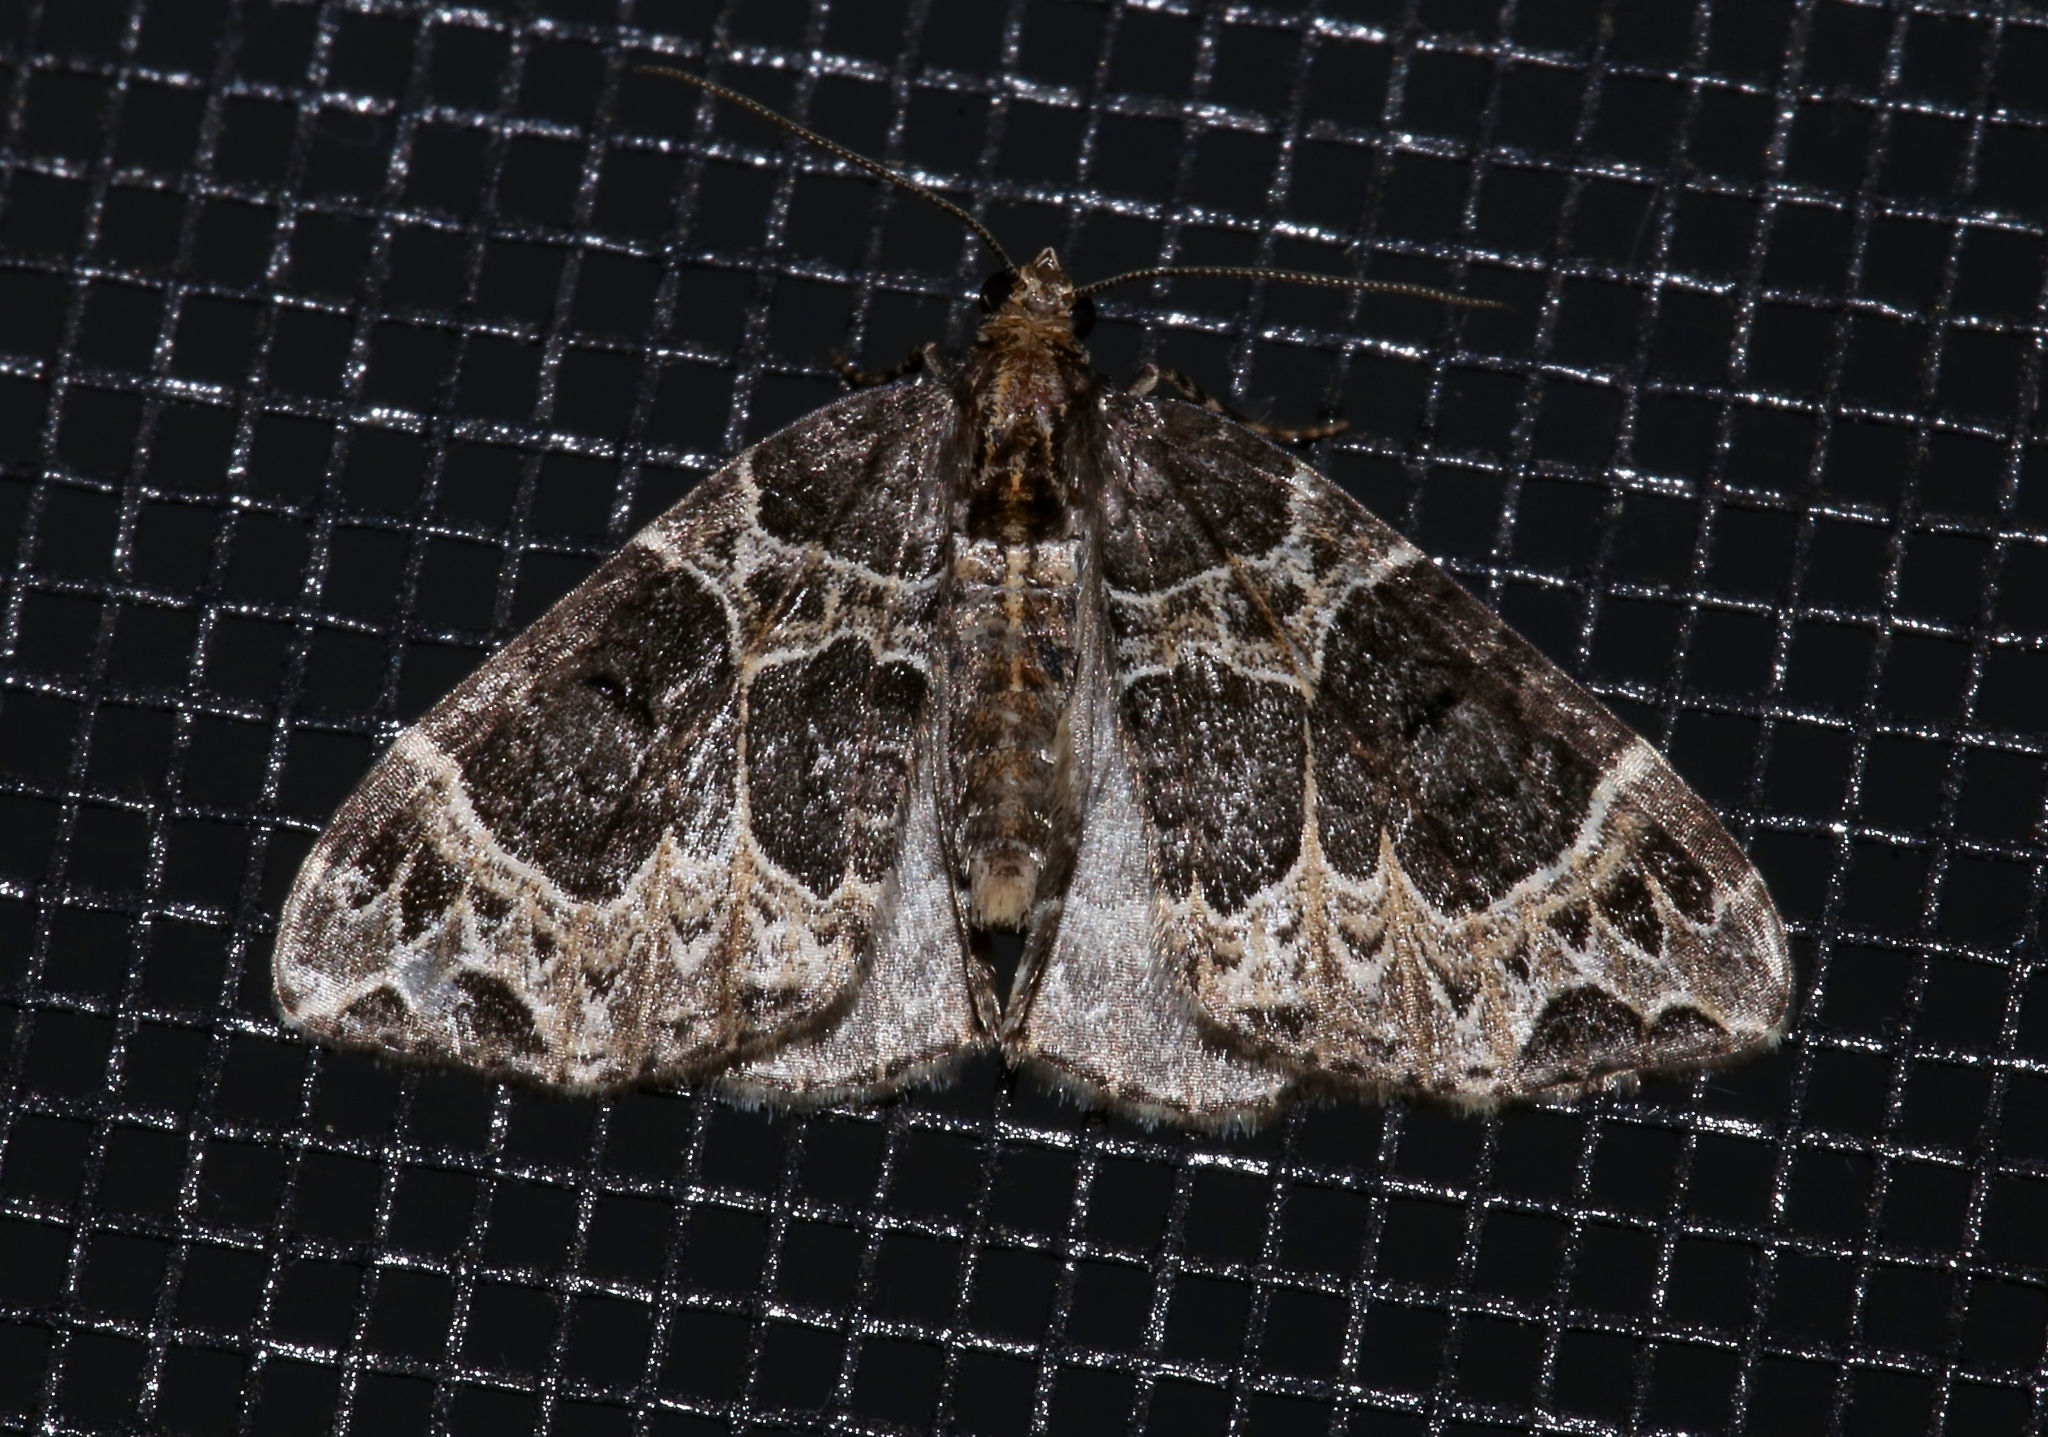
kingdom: Animalia
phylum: Arthropoda
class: Insecta
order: Lepidoptera
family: Geometridae
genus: Ecliptopera
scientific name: Ecliptopera silaceata
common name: Small phoenix
